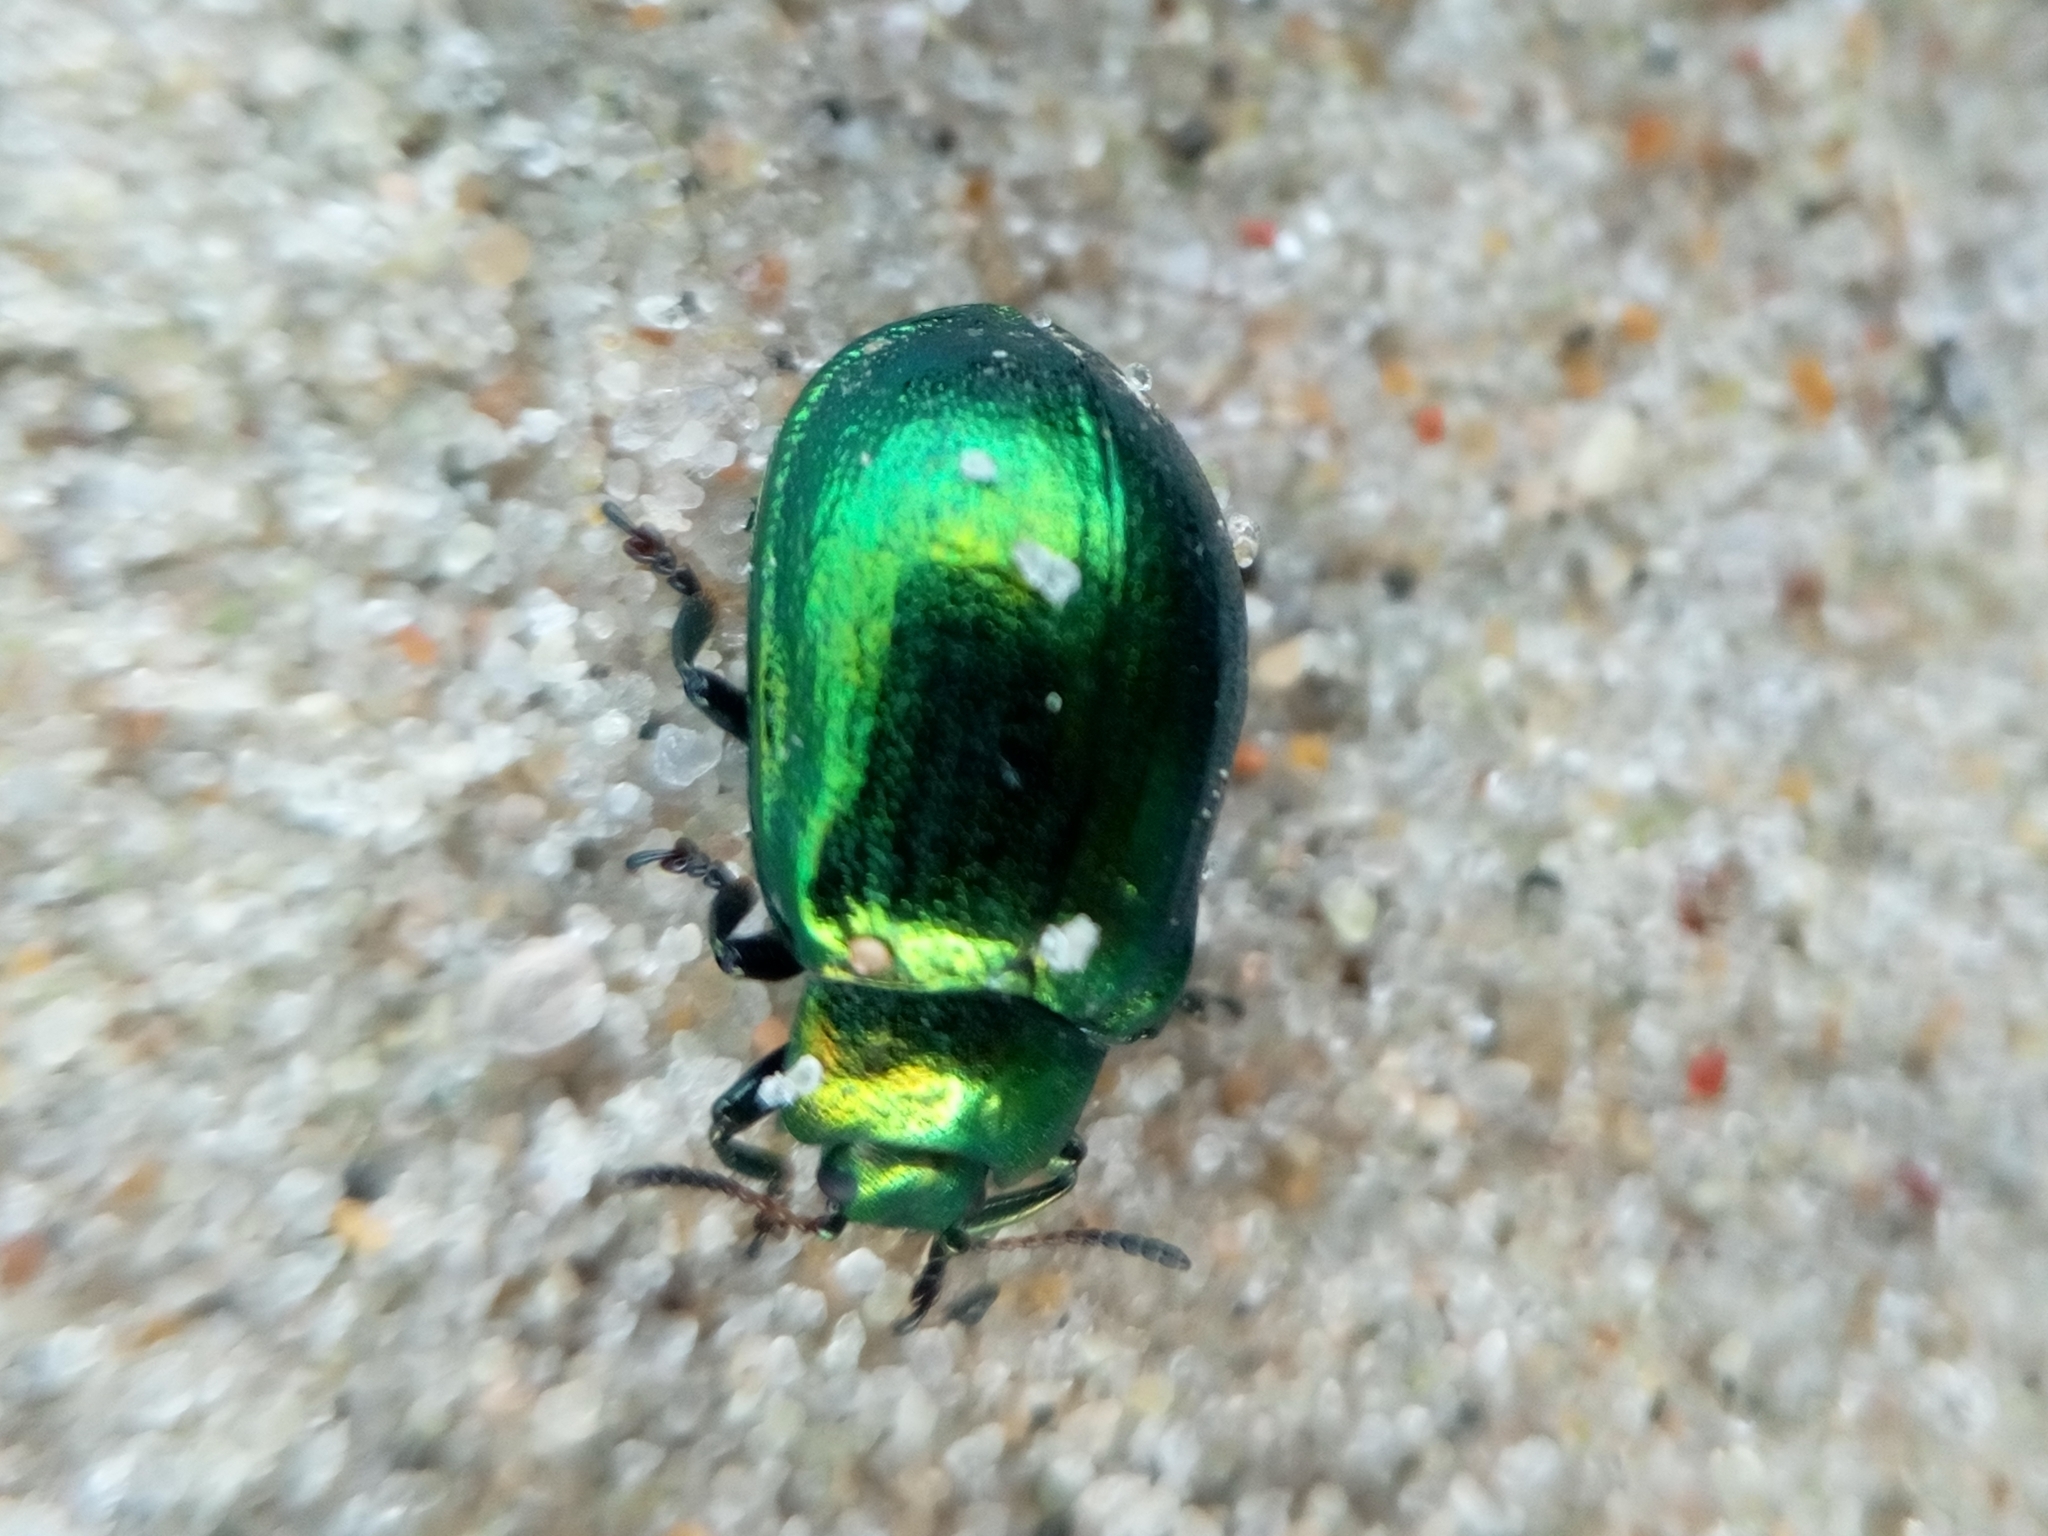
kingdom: Animalia
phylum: Arthropoda
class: Insecta
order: Coleoptera
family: Chrysomelidae
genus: Plagiosterna
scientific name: Plagiosterna aenea
